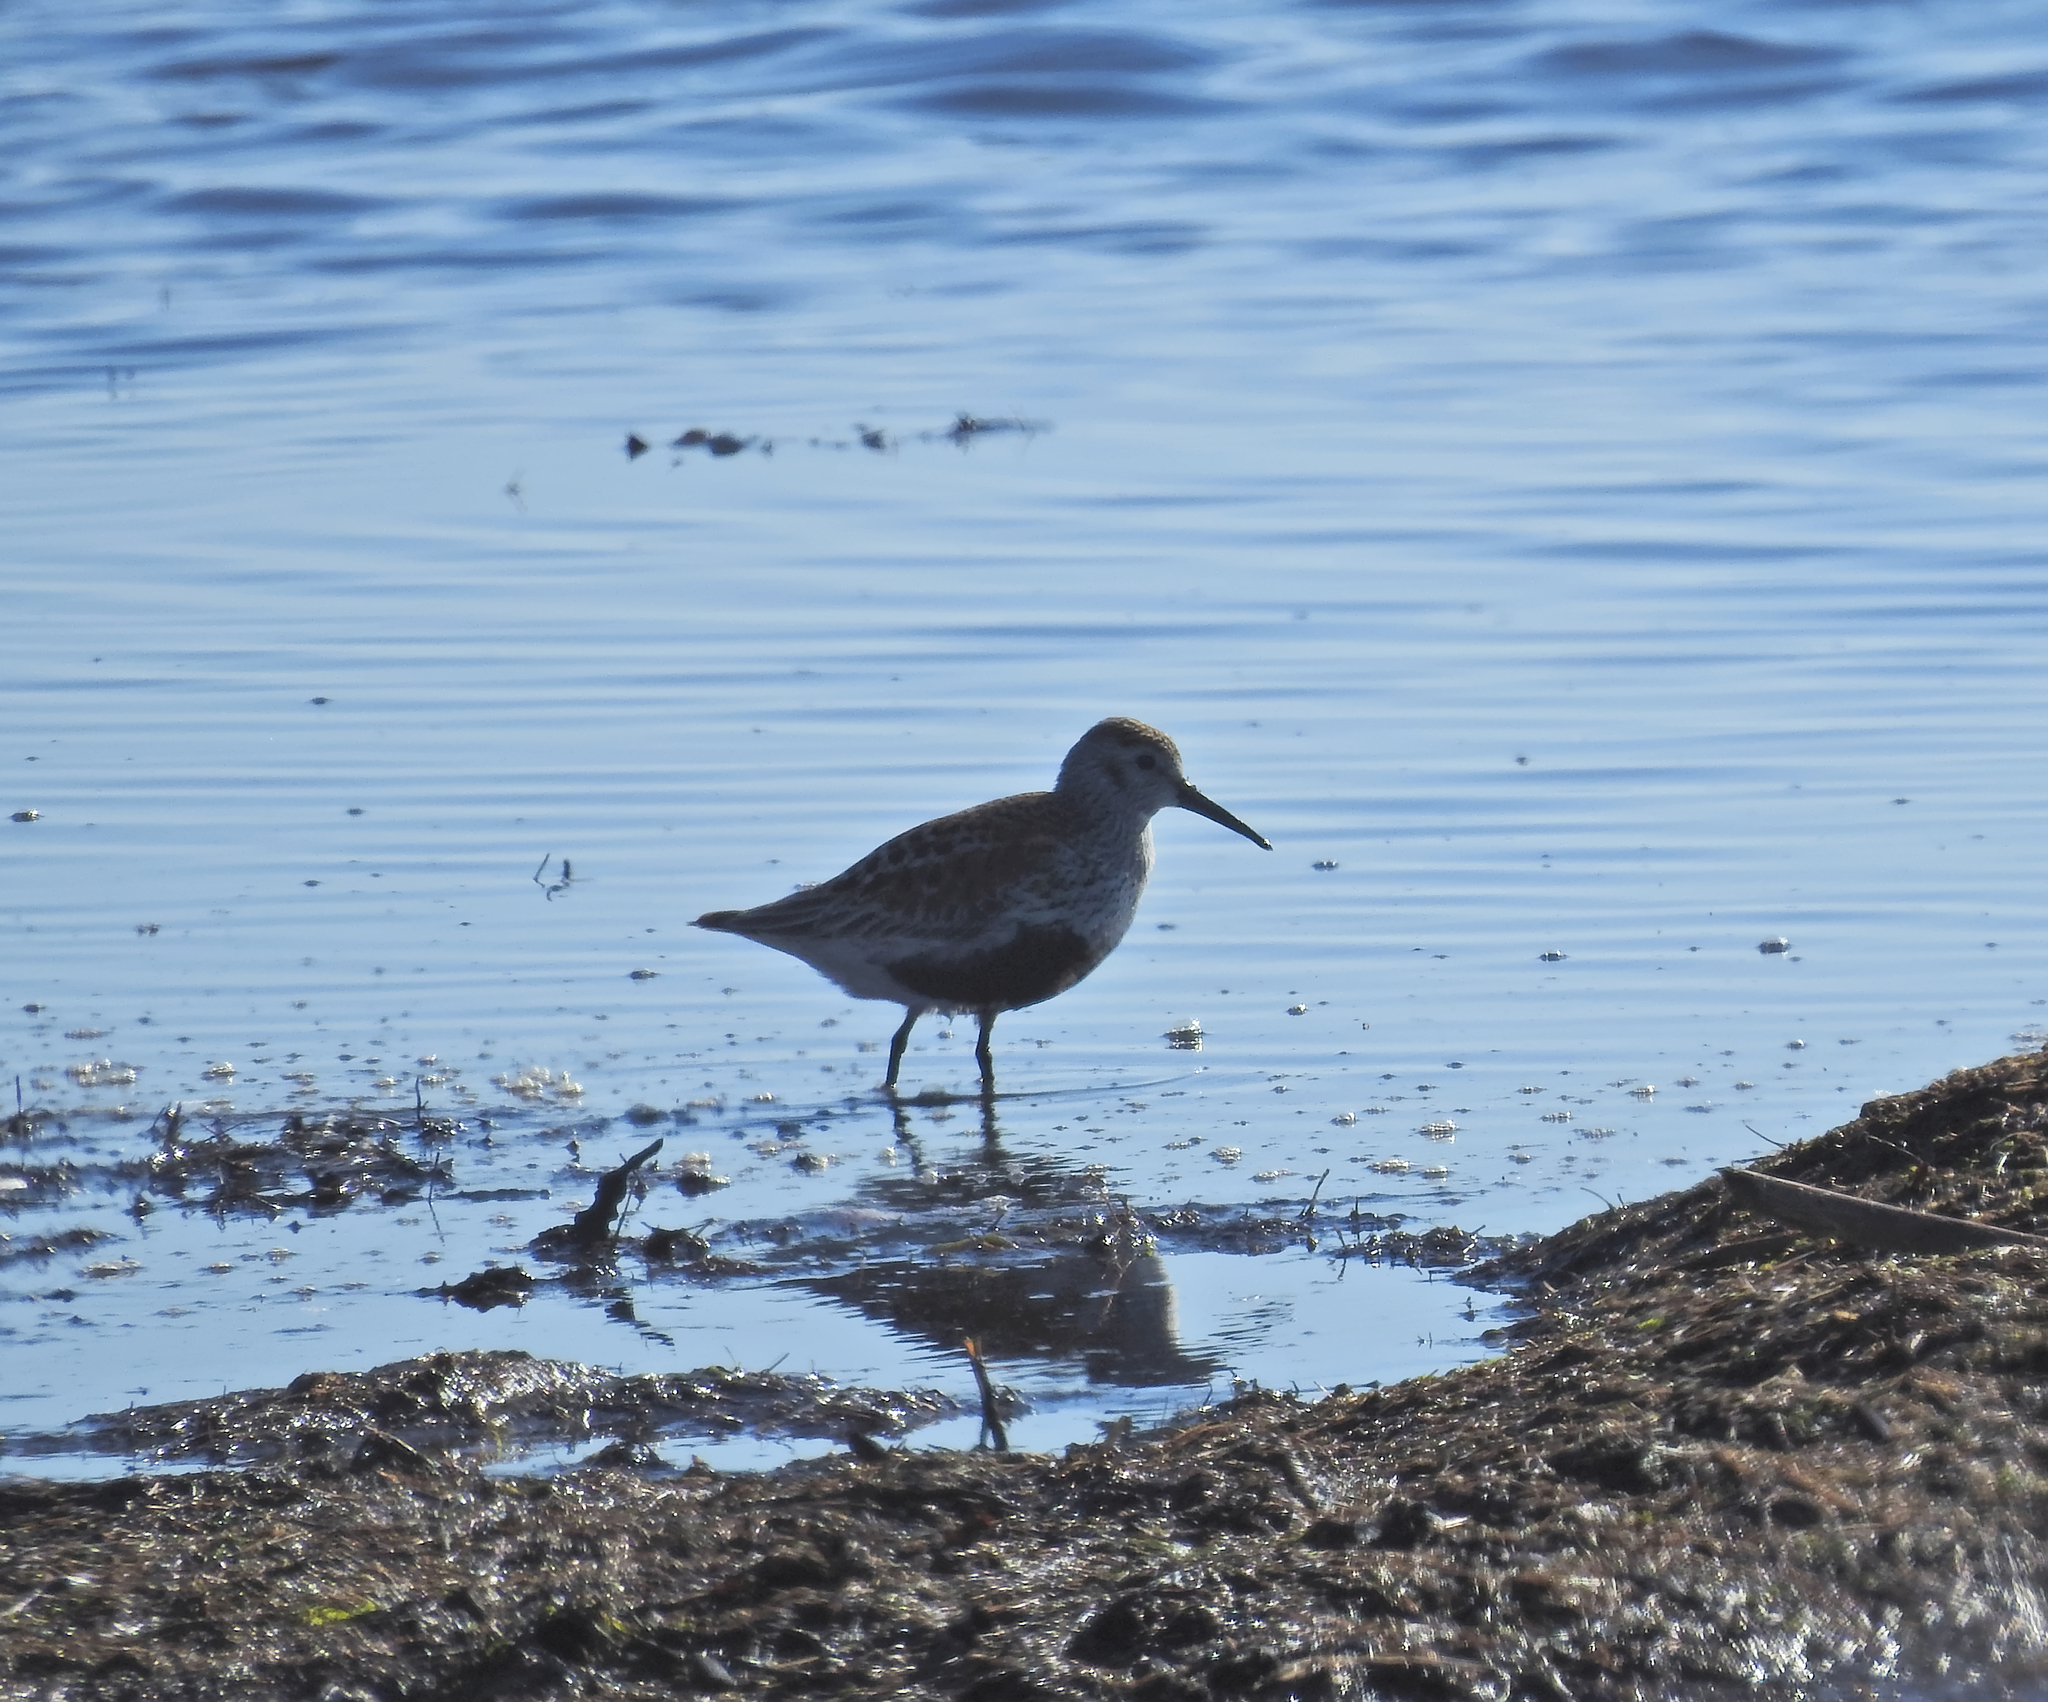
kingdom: Animalia
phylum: Chordata
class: Aves
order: Charadriiformes
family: Scolopacidae
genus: Calidris
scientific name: Calidris alpina
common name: Dunlin
